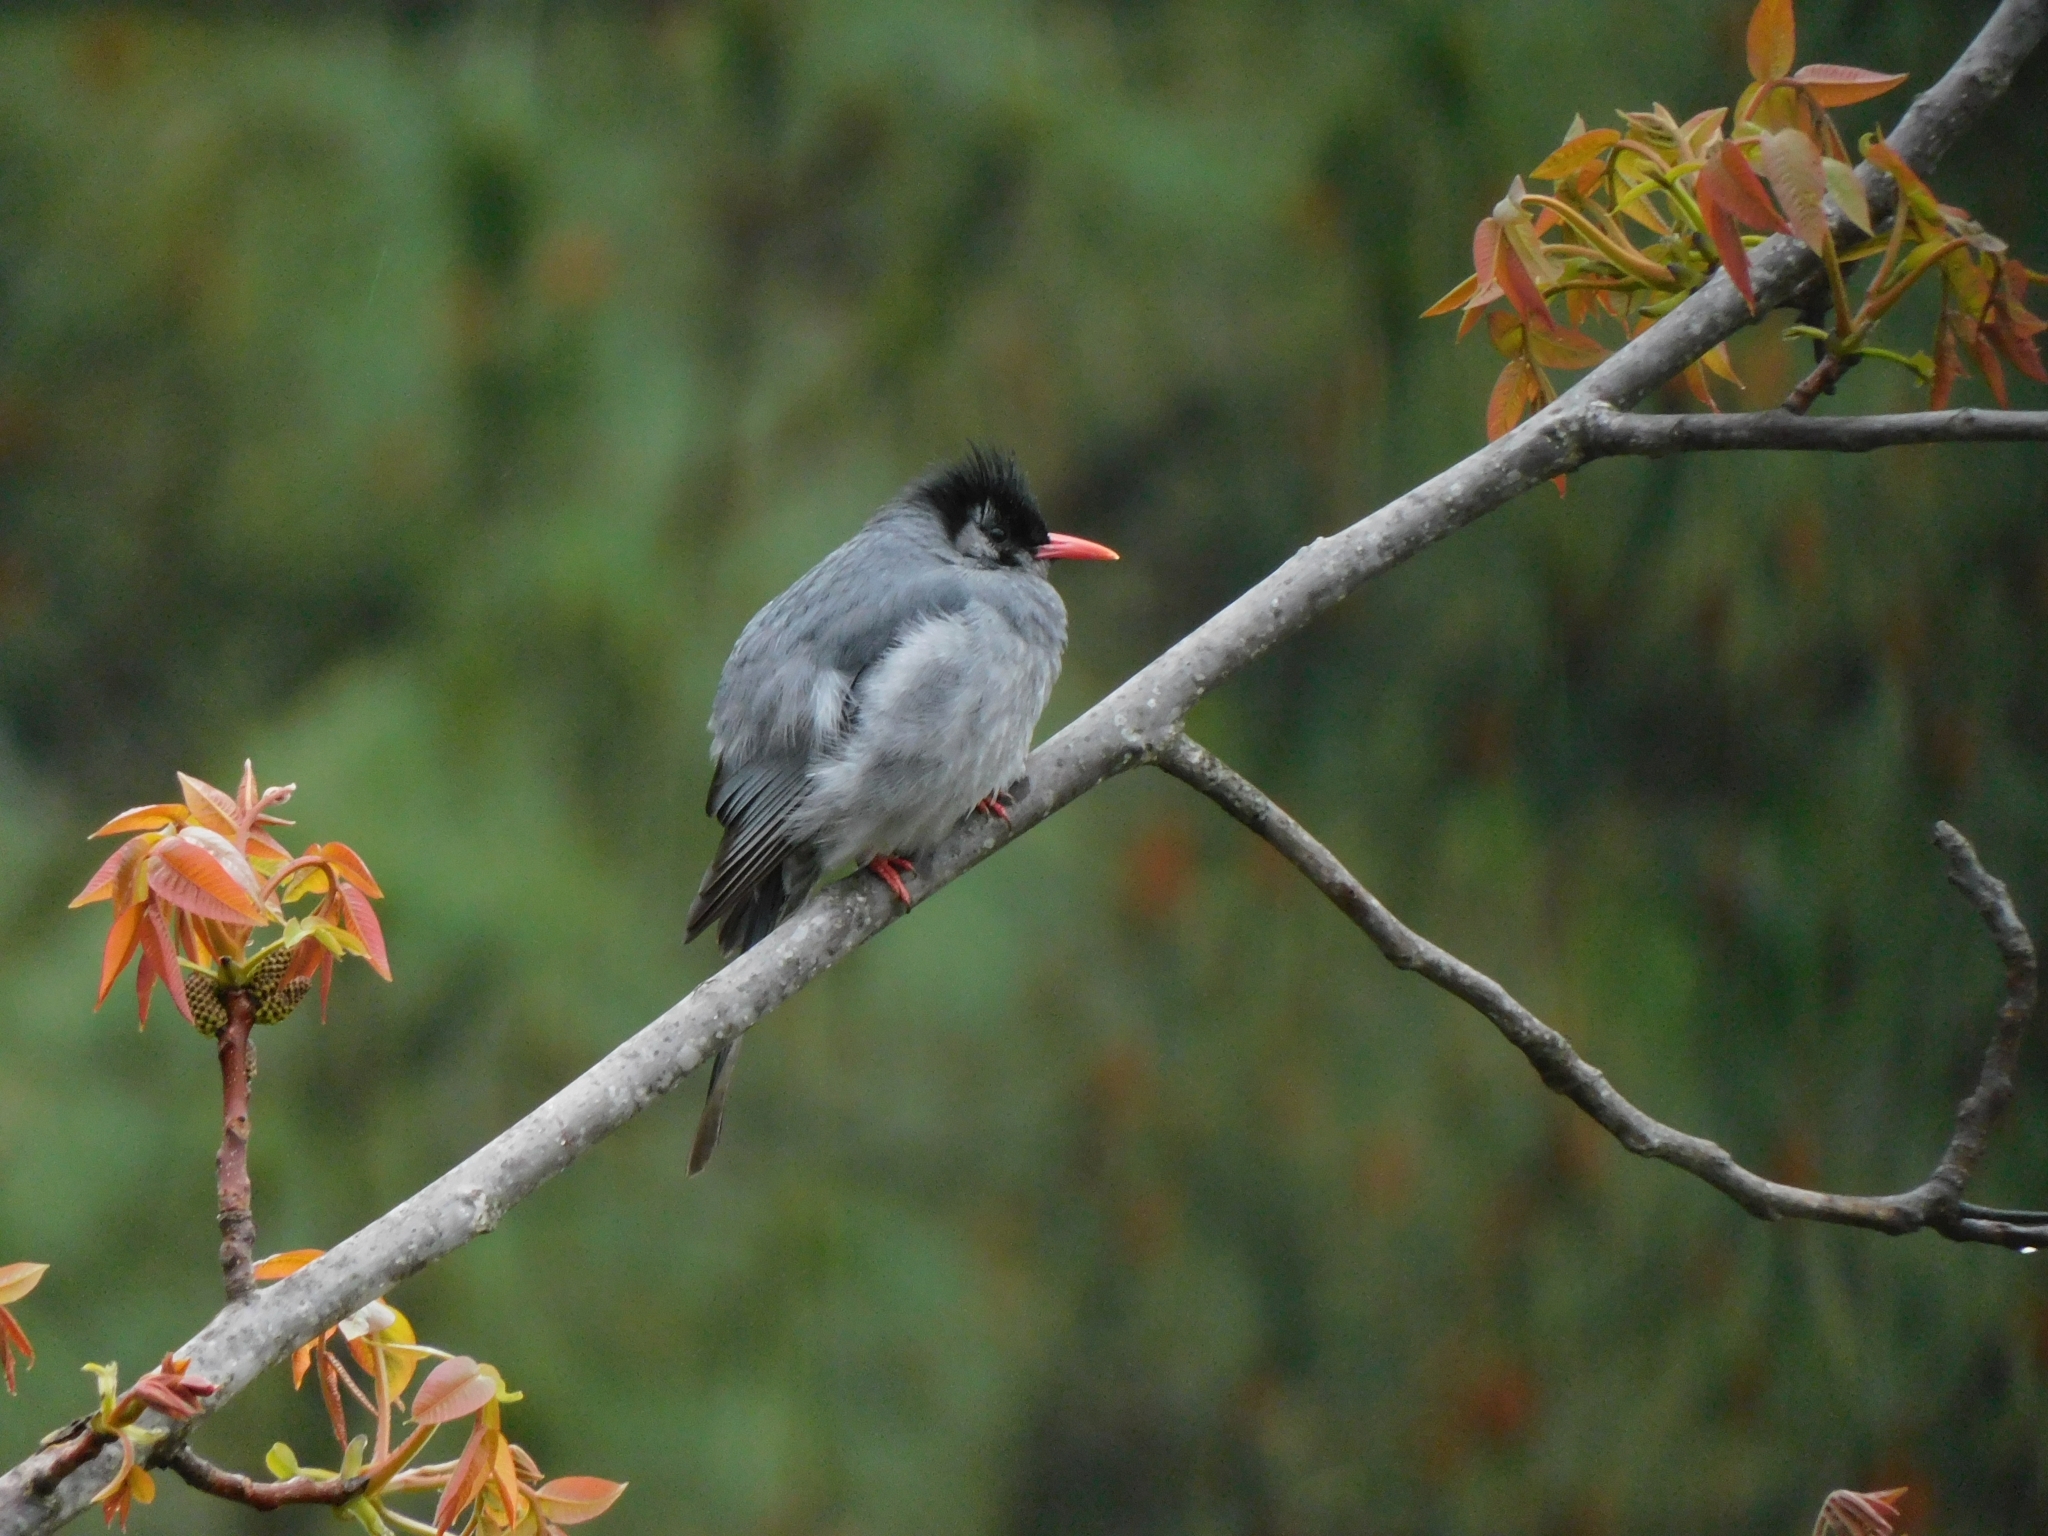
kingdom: Animalia
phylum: Chordata
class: Aves
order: Passeriformes
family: Pycnonotidae
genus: Hypsipetes
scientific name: Hypsipetes leucocephalus
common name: Black bulbul
